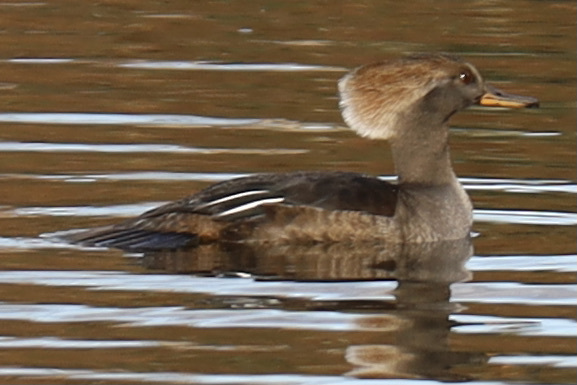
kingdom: Animalia
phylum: Chordata
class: Aves
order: Anseriformes
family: Anatidae
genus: Lophodytes
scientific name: Lophodytes cucullatus
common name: Hooded merganser
